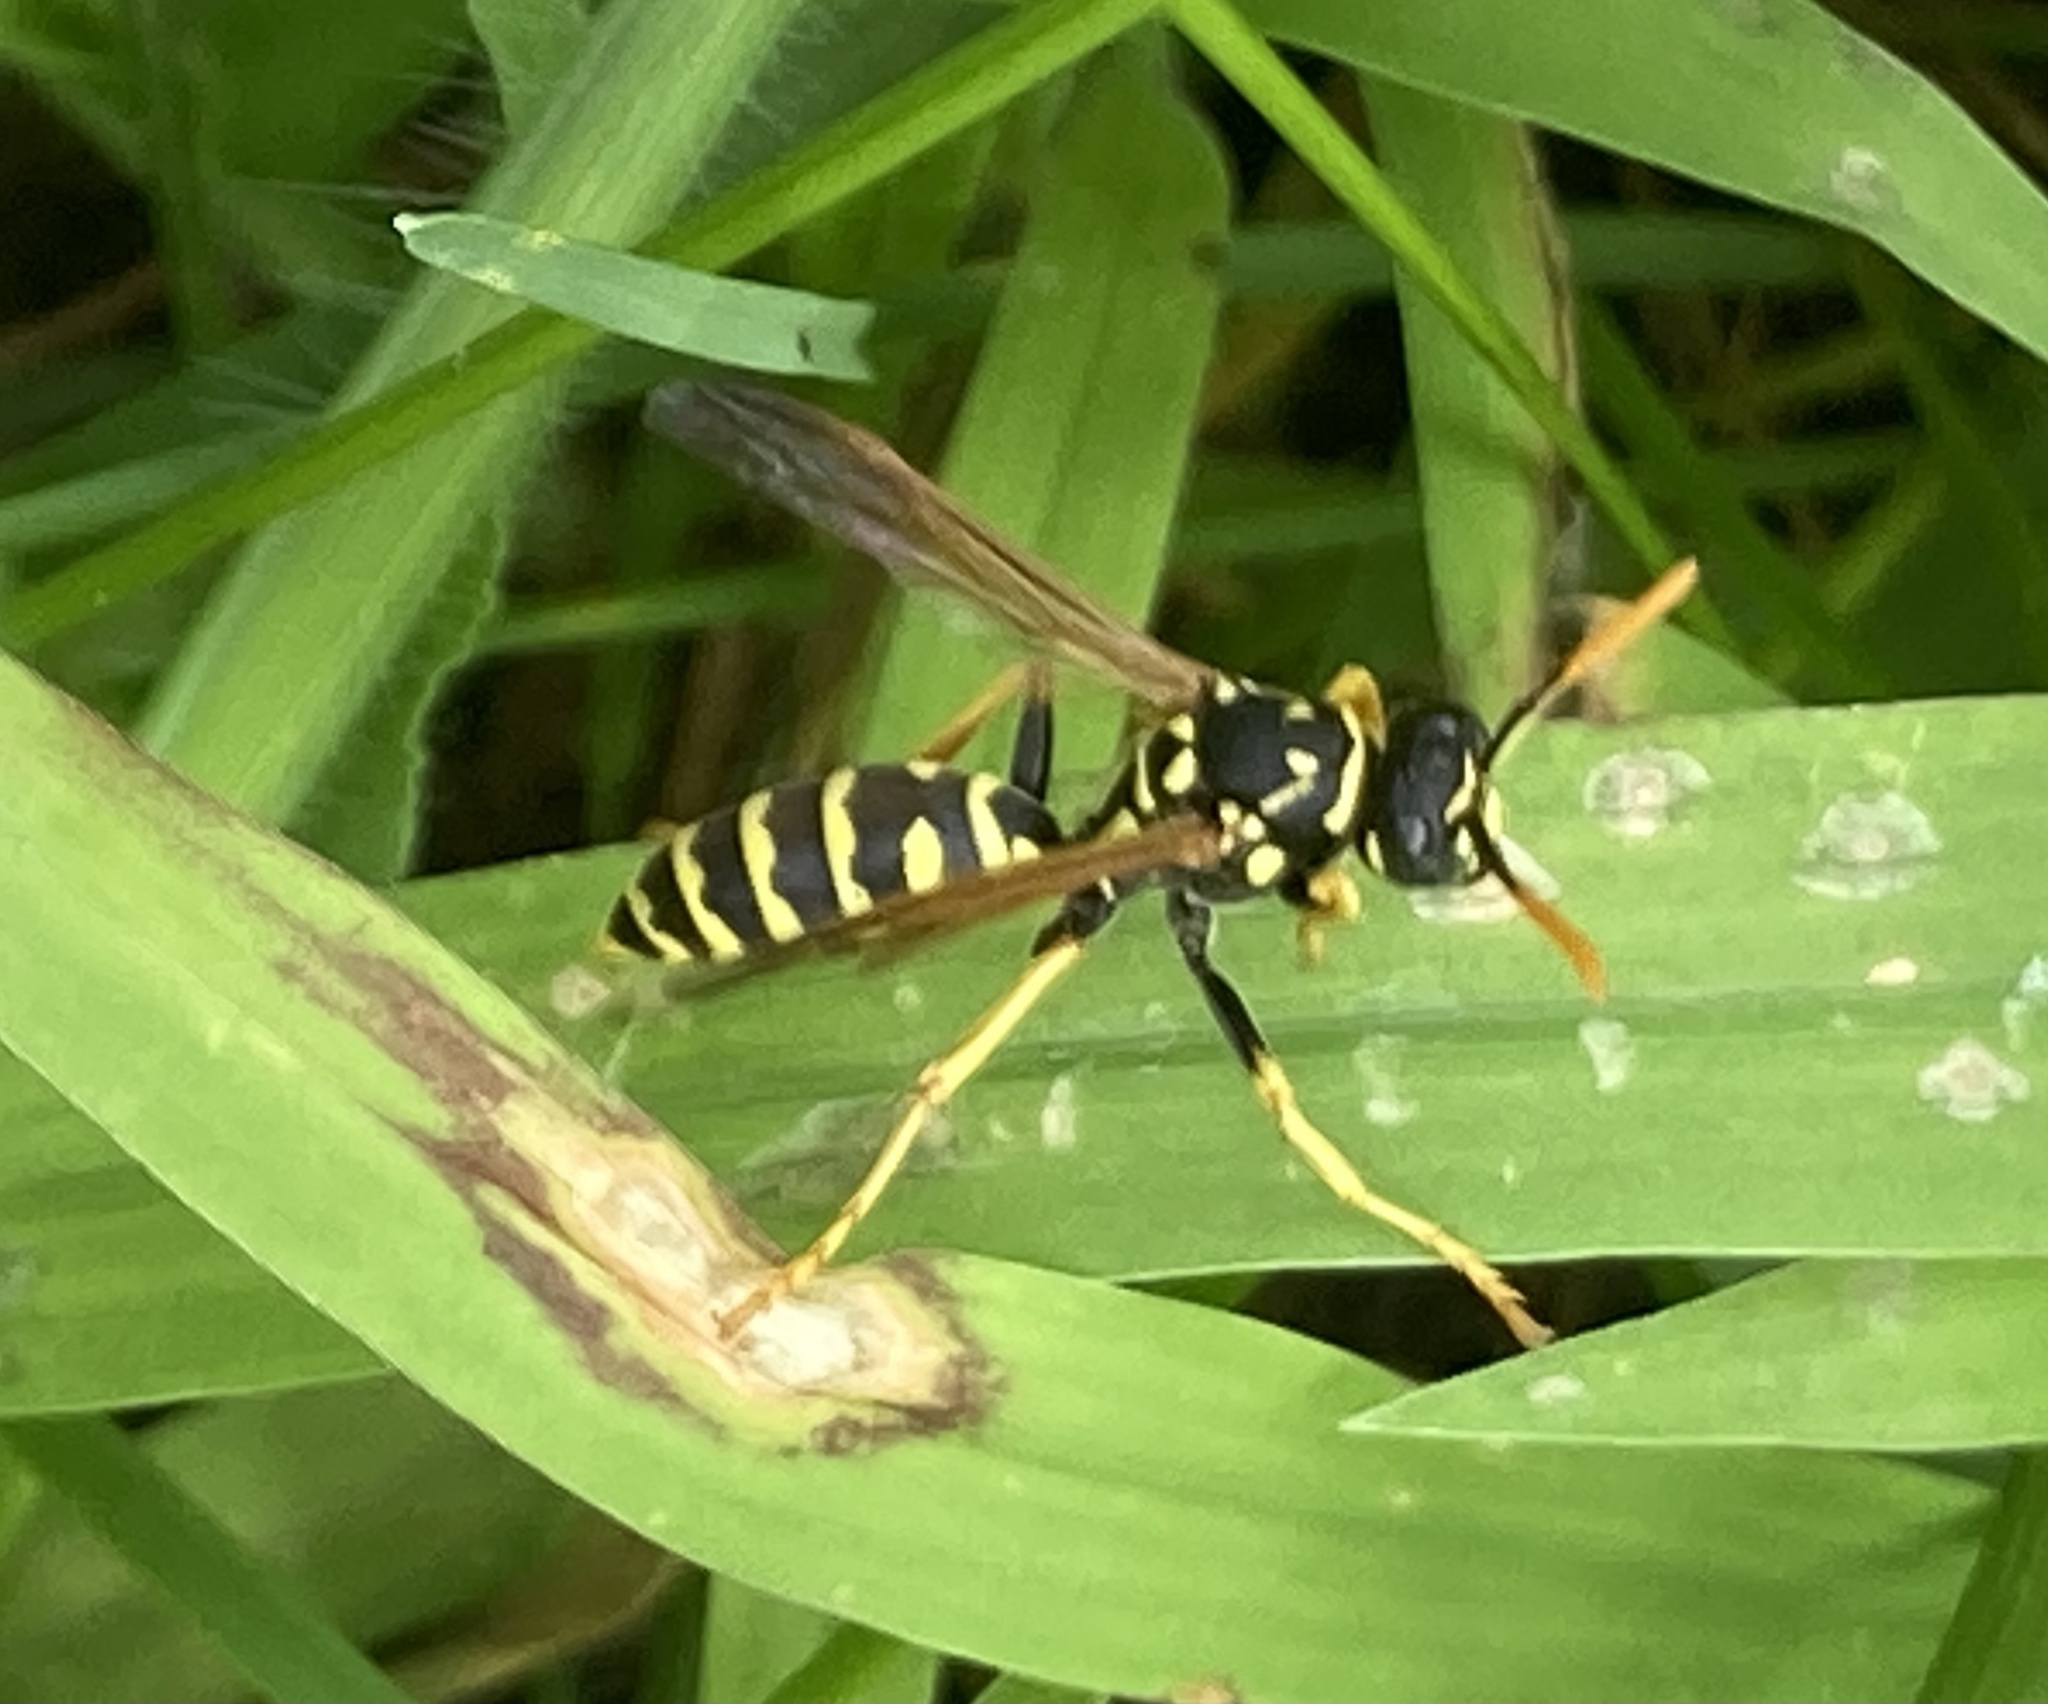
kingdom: Animalia
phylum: Arthropoda
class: Insecta
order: Hymenoptera
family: Eumenidae
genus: Polistes
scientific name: Polistes dominula
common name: Paper wasp
